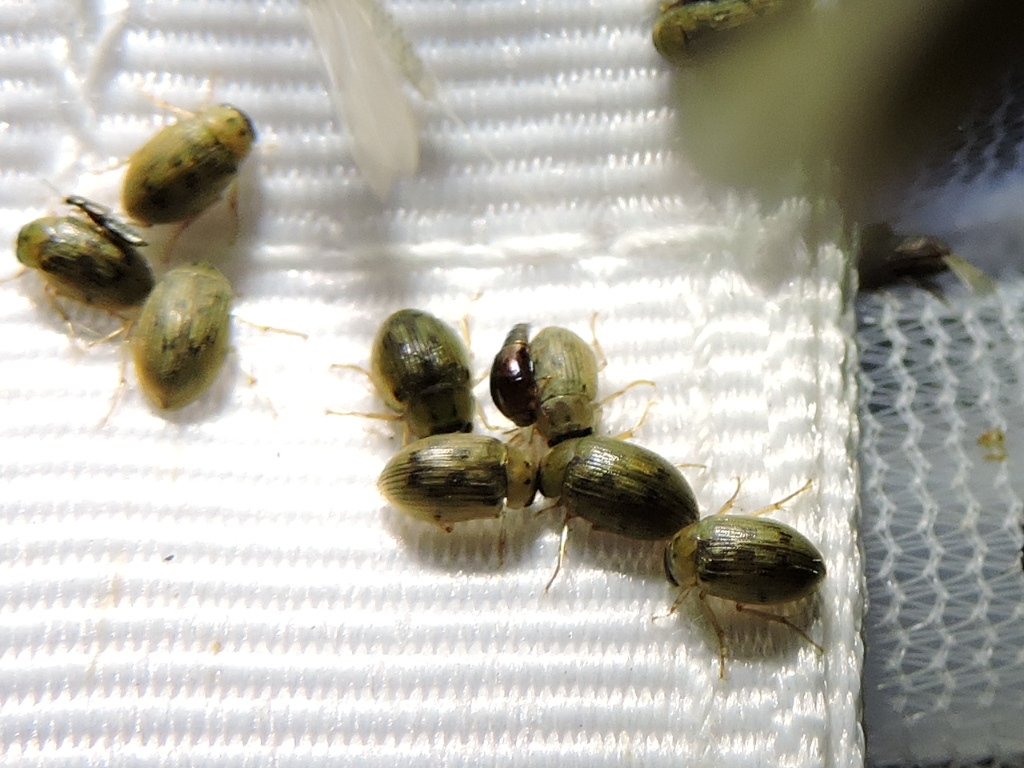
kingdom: Animalia
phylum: Arthropoda
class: Insecta
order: Coleoptera
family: Hydrophilidae
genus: Berosus
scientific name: Berosus
